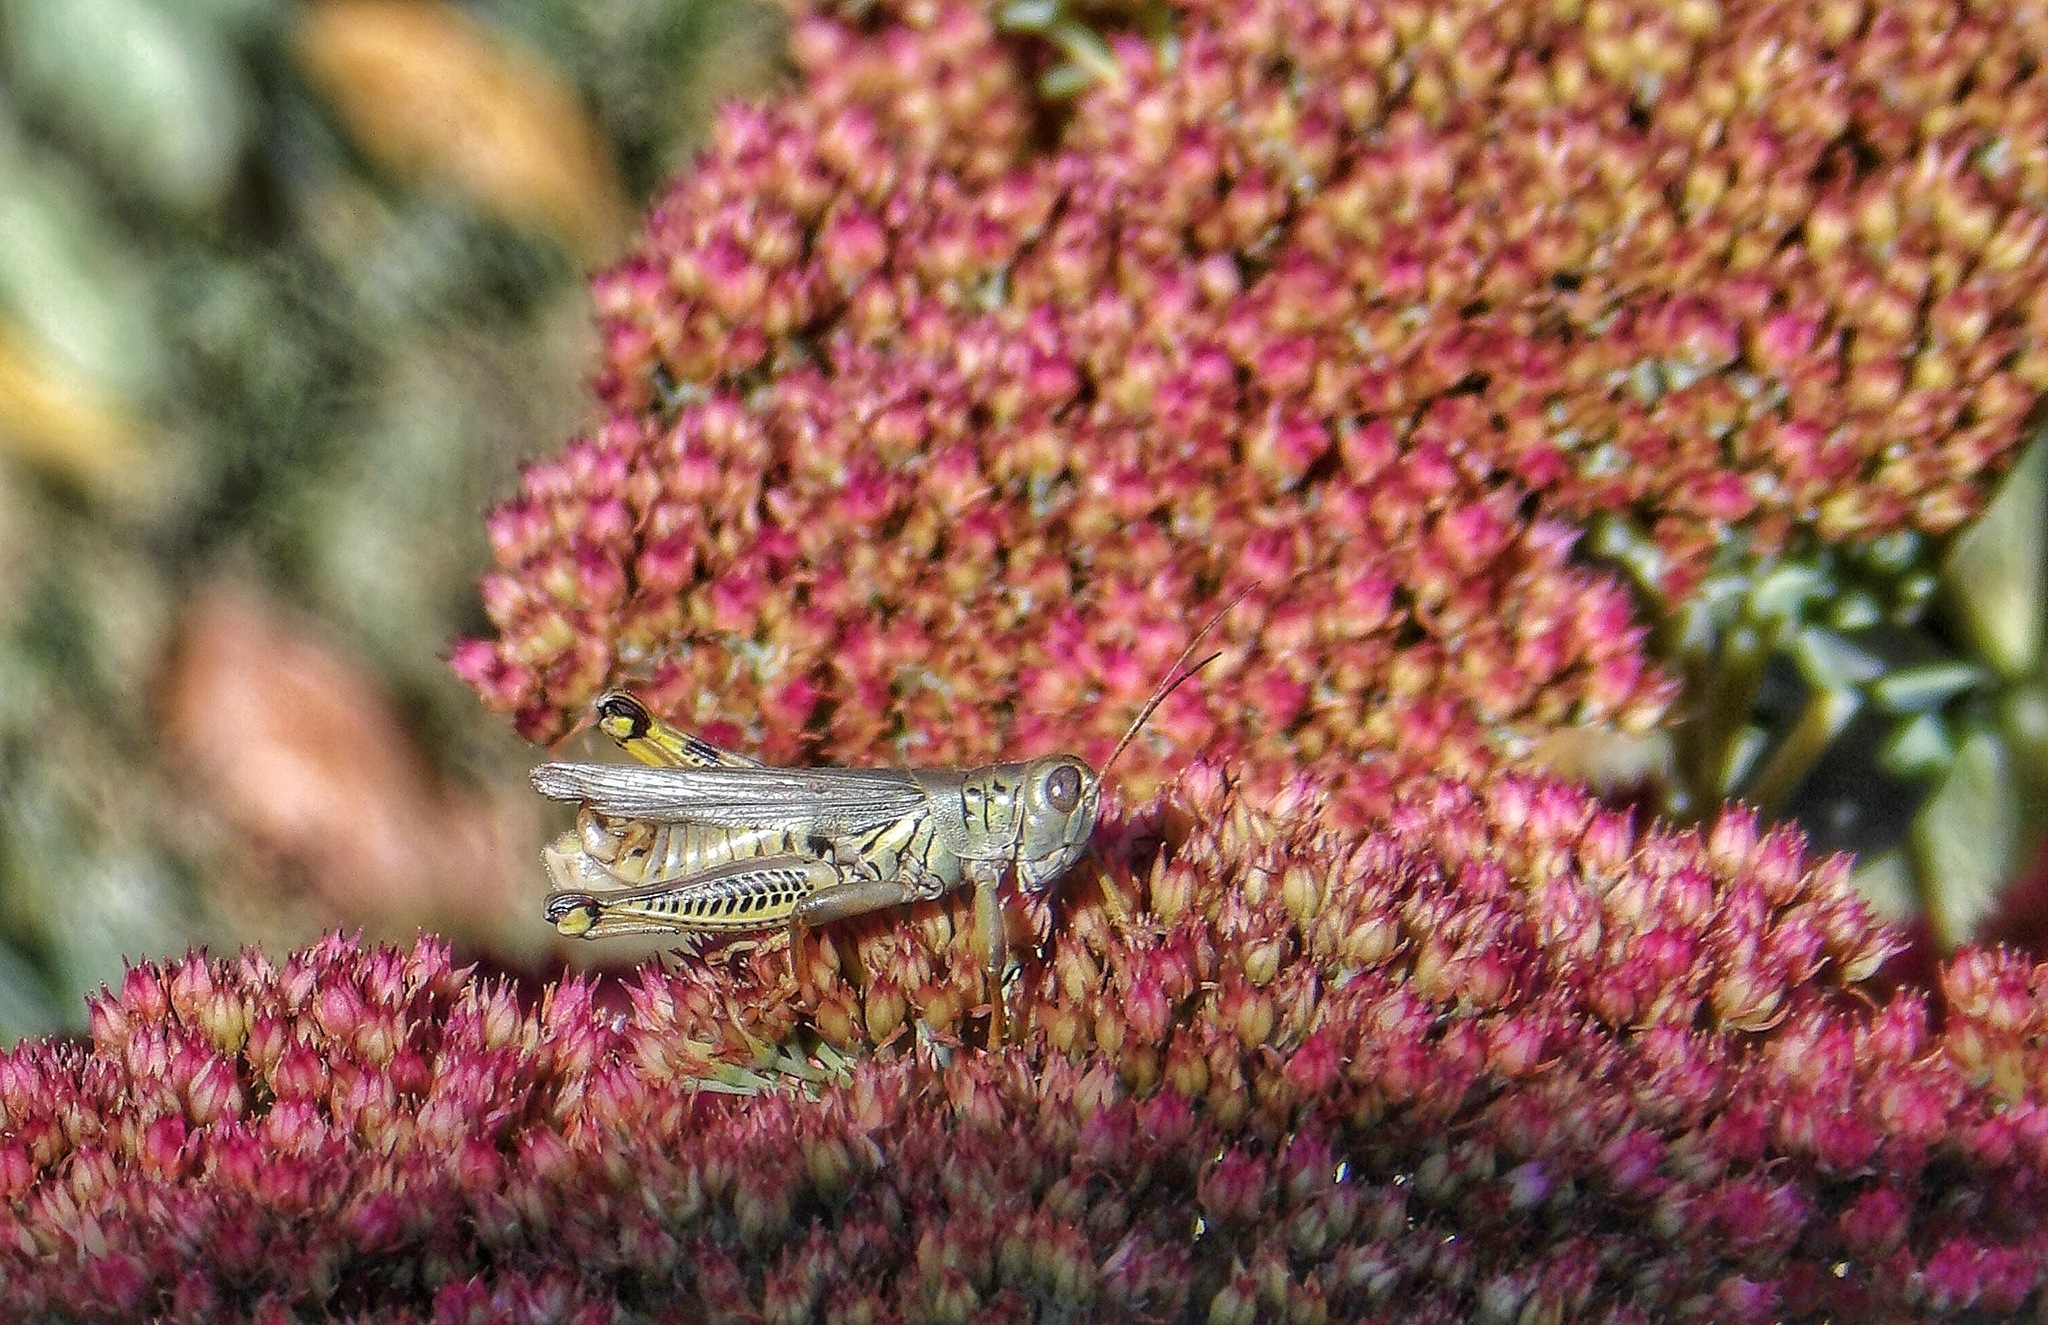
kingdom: Animalia
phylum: Arthropoda
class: Insecta
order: Orthoptera
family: Acrididae
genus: Melanoplus
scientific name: Melanoplus differentialis
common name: Differential grasshopper
